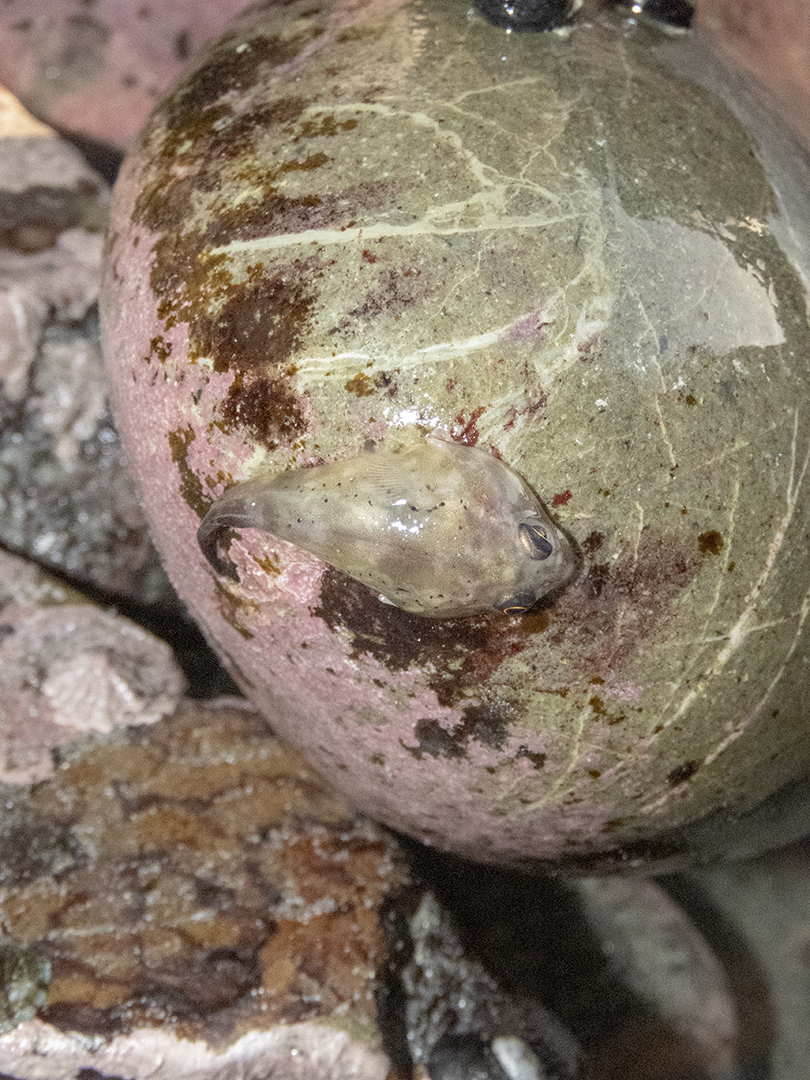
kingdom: Animalia
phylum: Chordata
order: Gobiesociformes
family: Gobiesocidae
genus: Diplocrepis
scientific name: Diplocrepis puniceus
